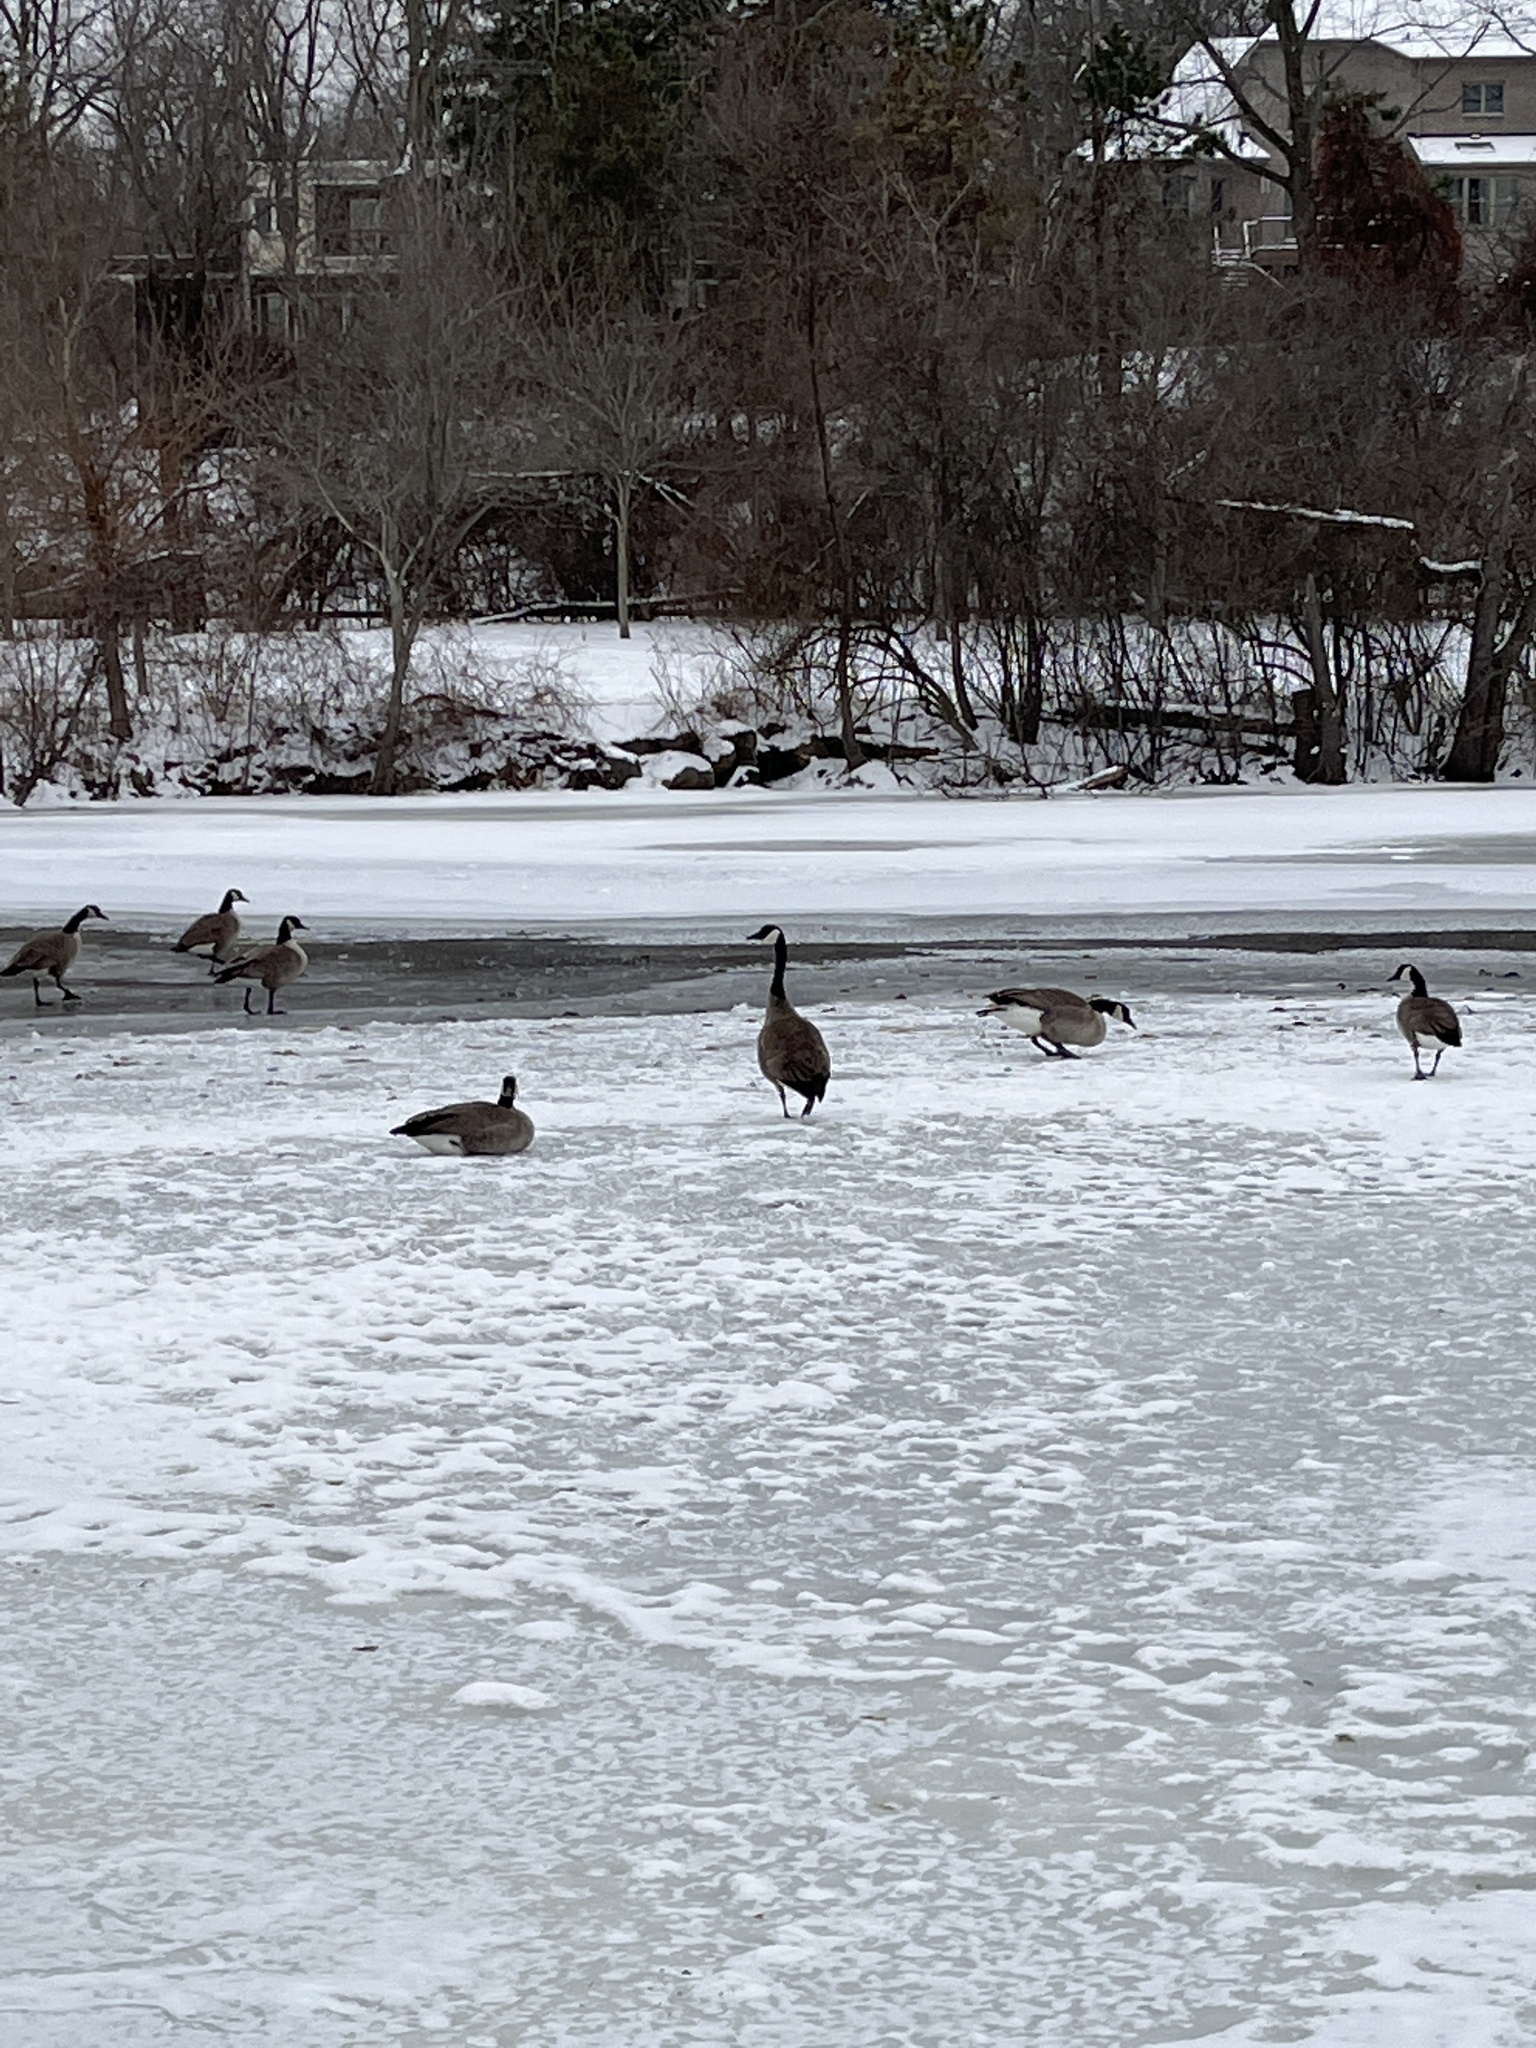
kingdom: Animalia
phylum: Chordata
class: Aves
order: Anseriformes
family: Anatidae
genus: Branta
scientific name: Branta canadensis
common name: Canada goose
